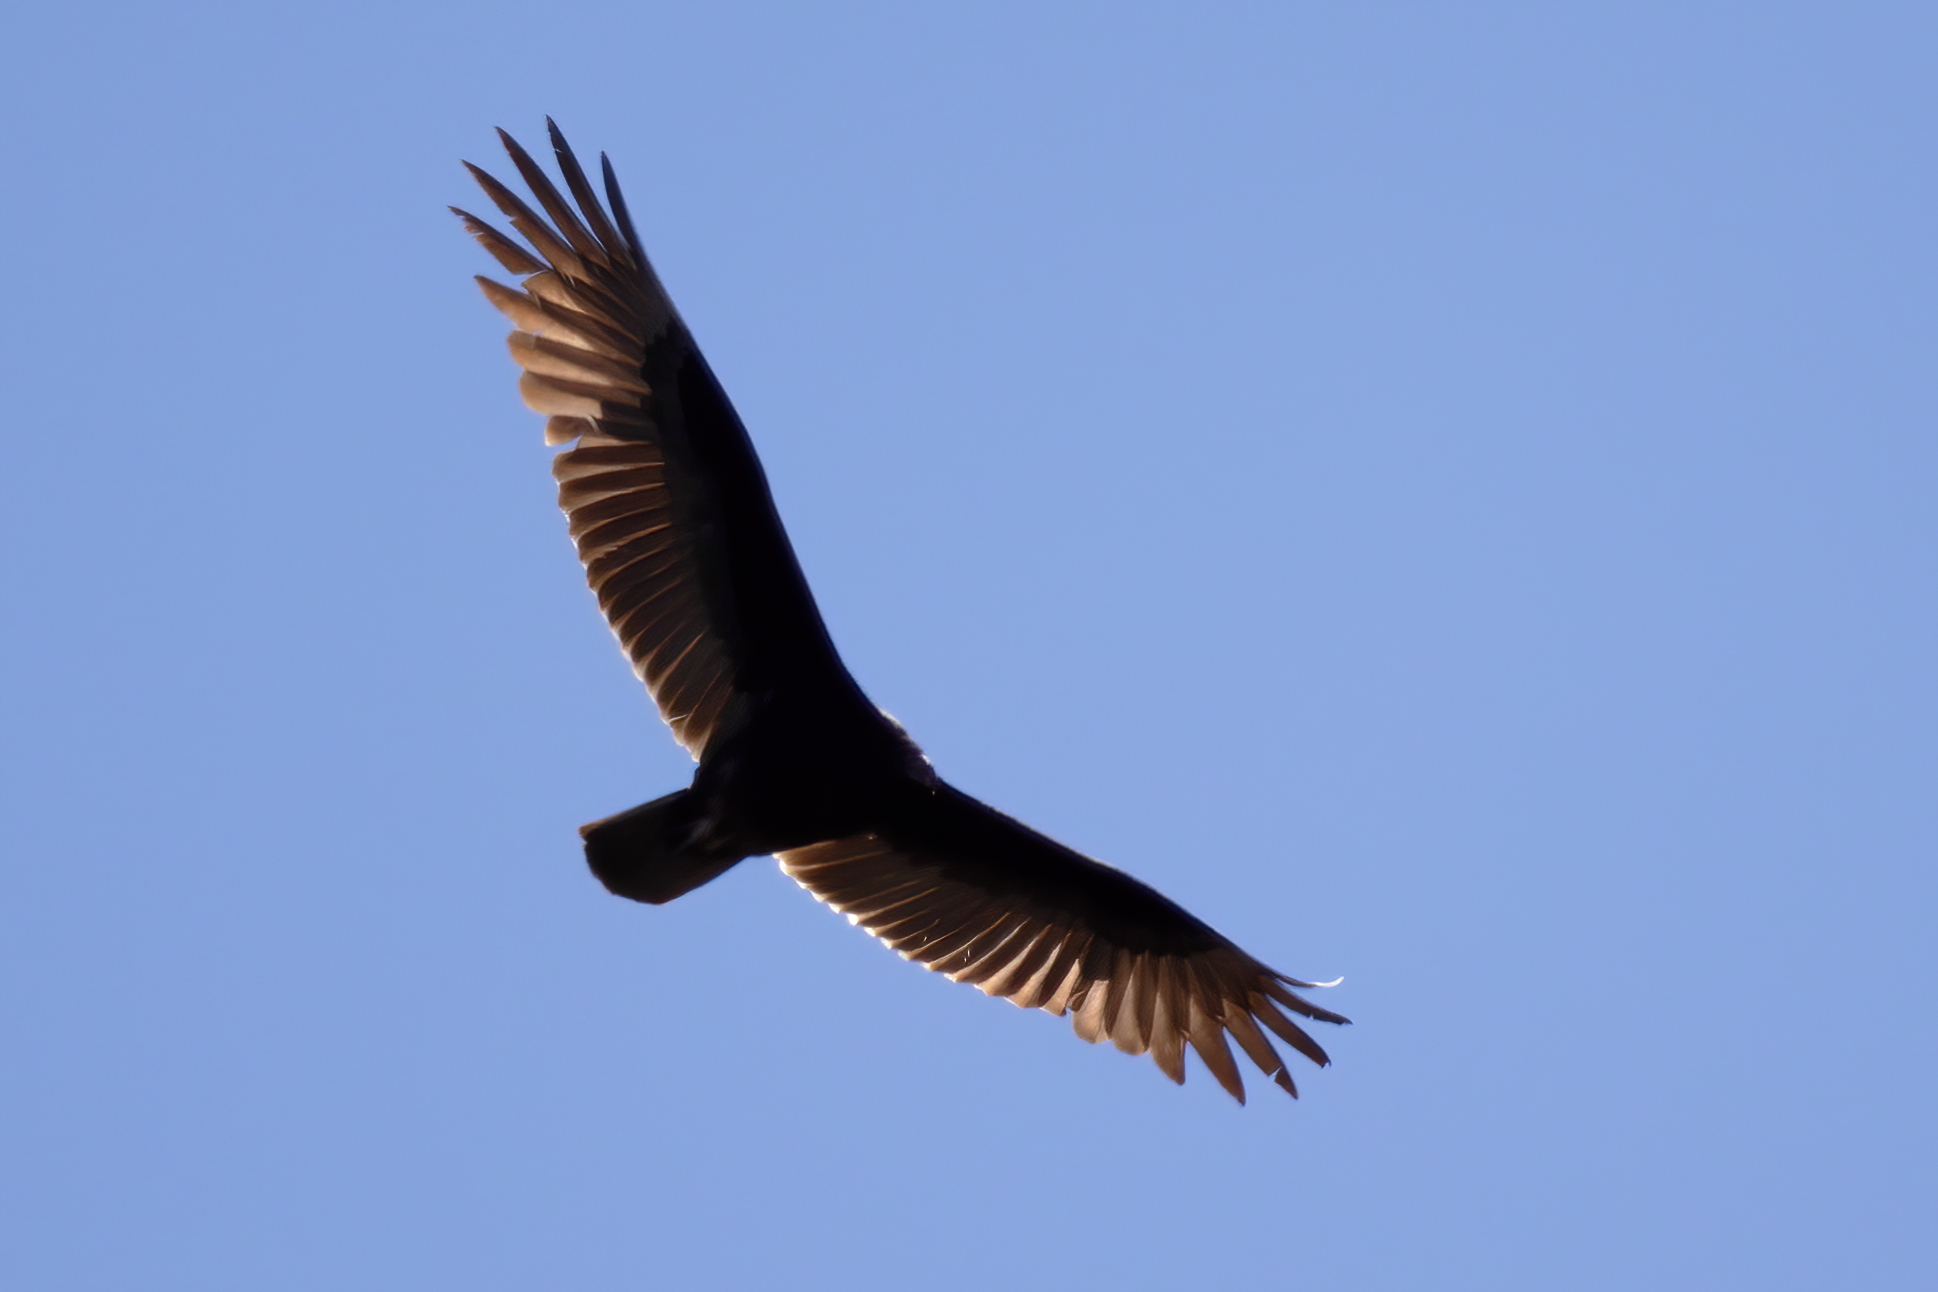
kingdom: Animalia
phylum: Chordata
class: Aves
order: Accipitriformes
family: Cathartidae
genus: Cathartes
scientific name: Cathartes aura
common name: Turkey vulture
